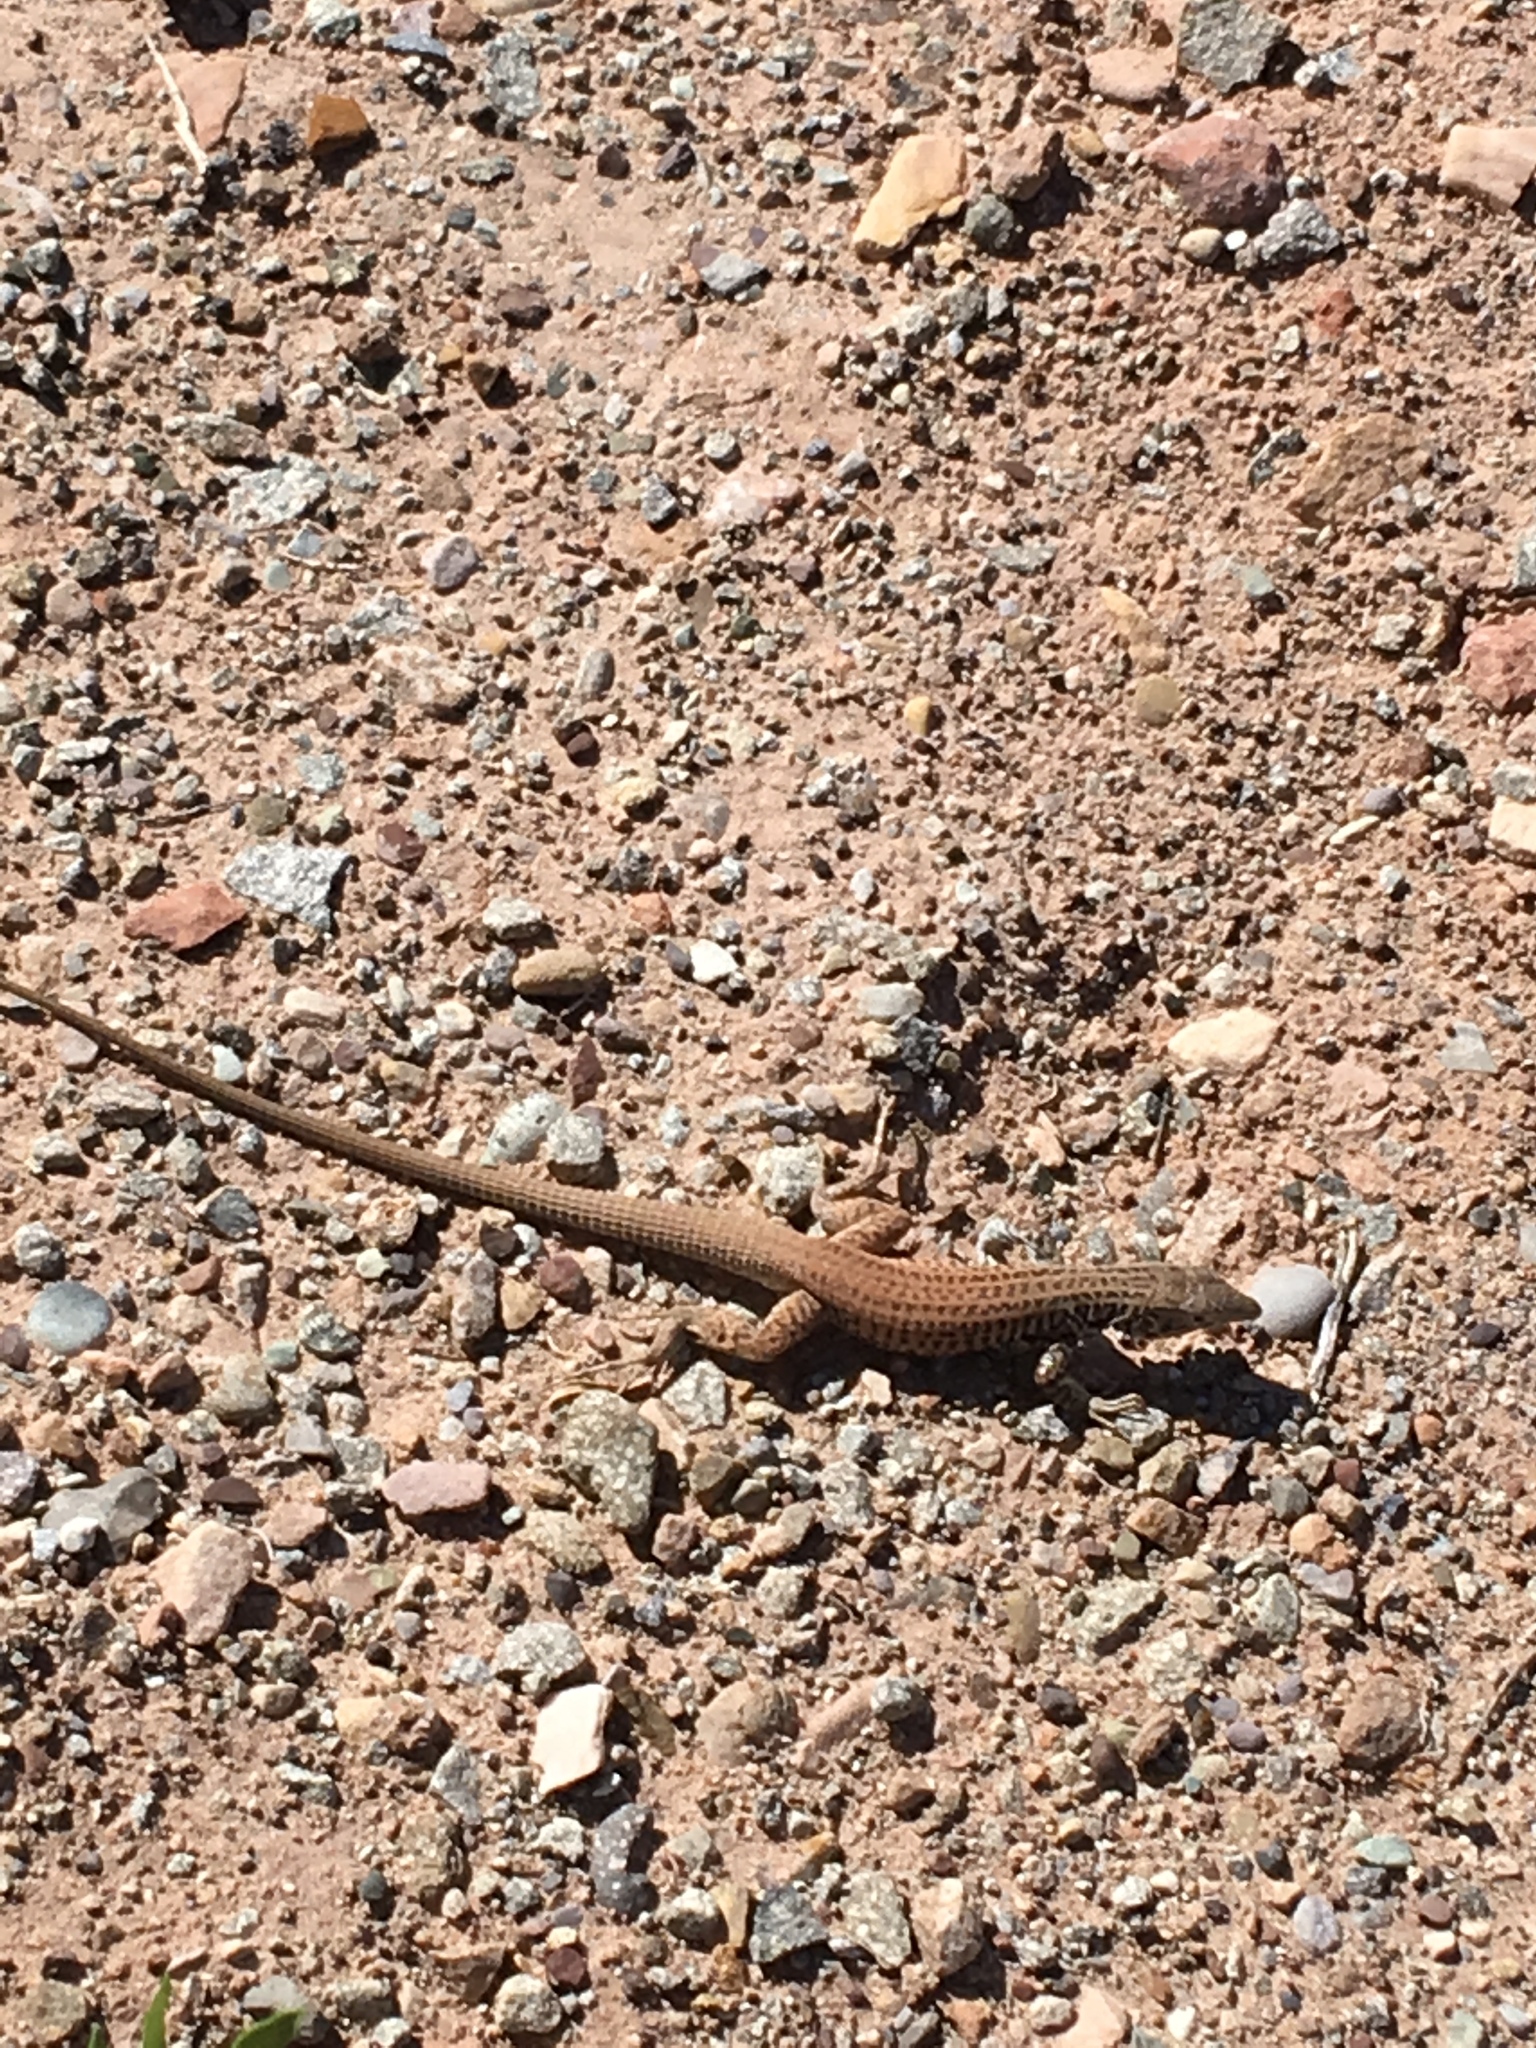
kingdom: Animalia
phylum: Chordata
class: Squamata
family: Teiidae
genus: Aspidoscelis
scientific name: Aspidoscelis tigris
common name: Tiger whiptail
